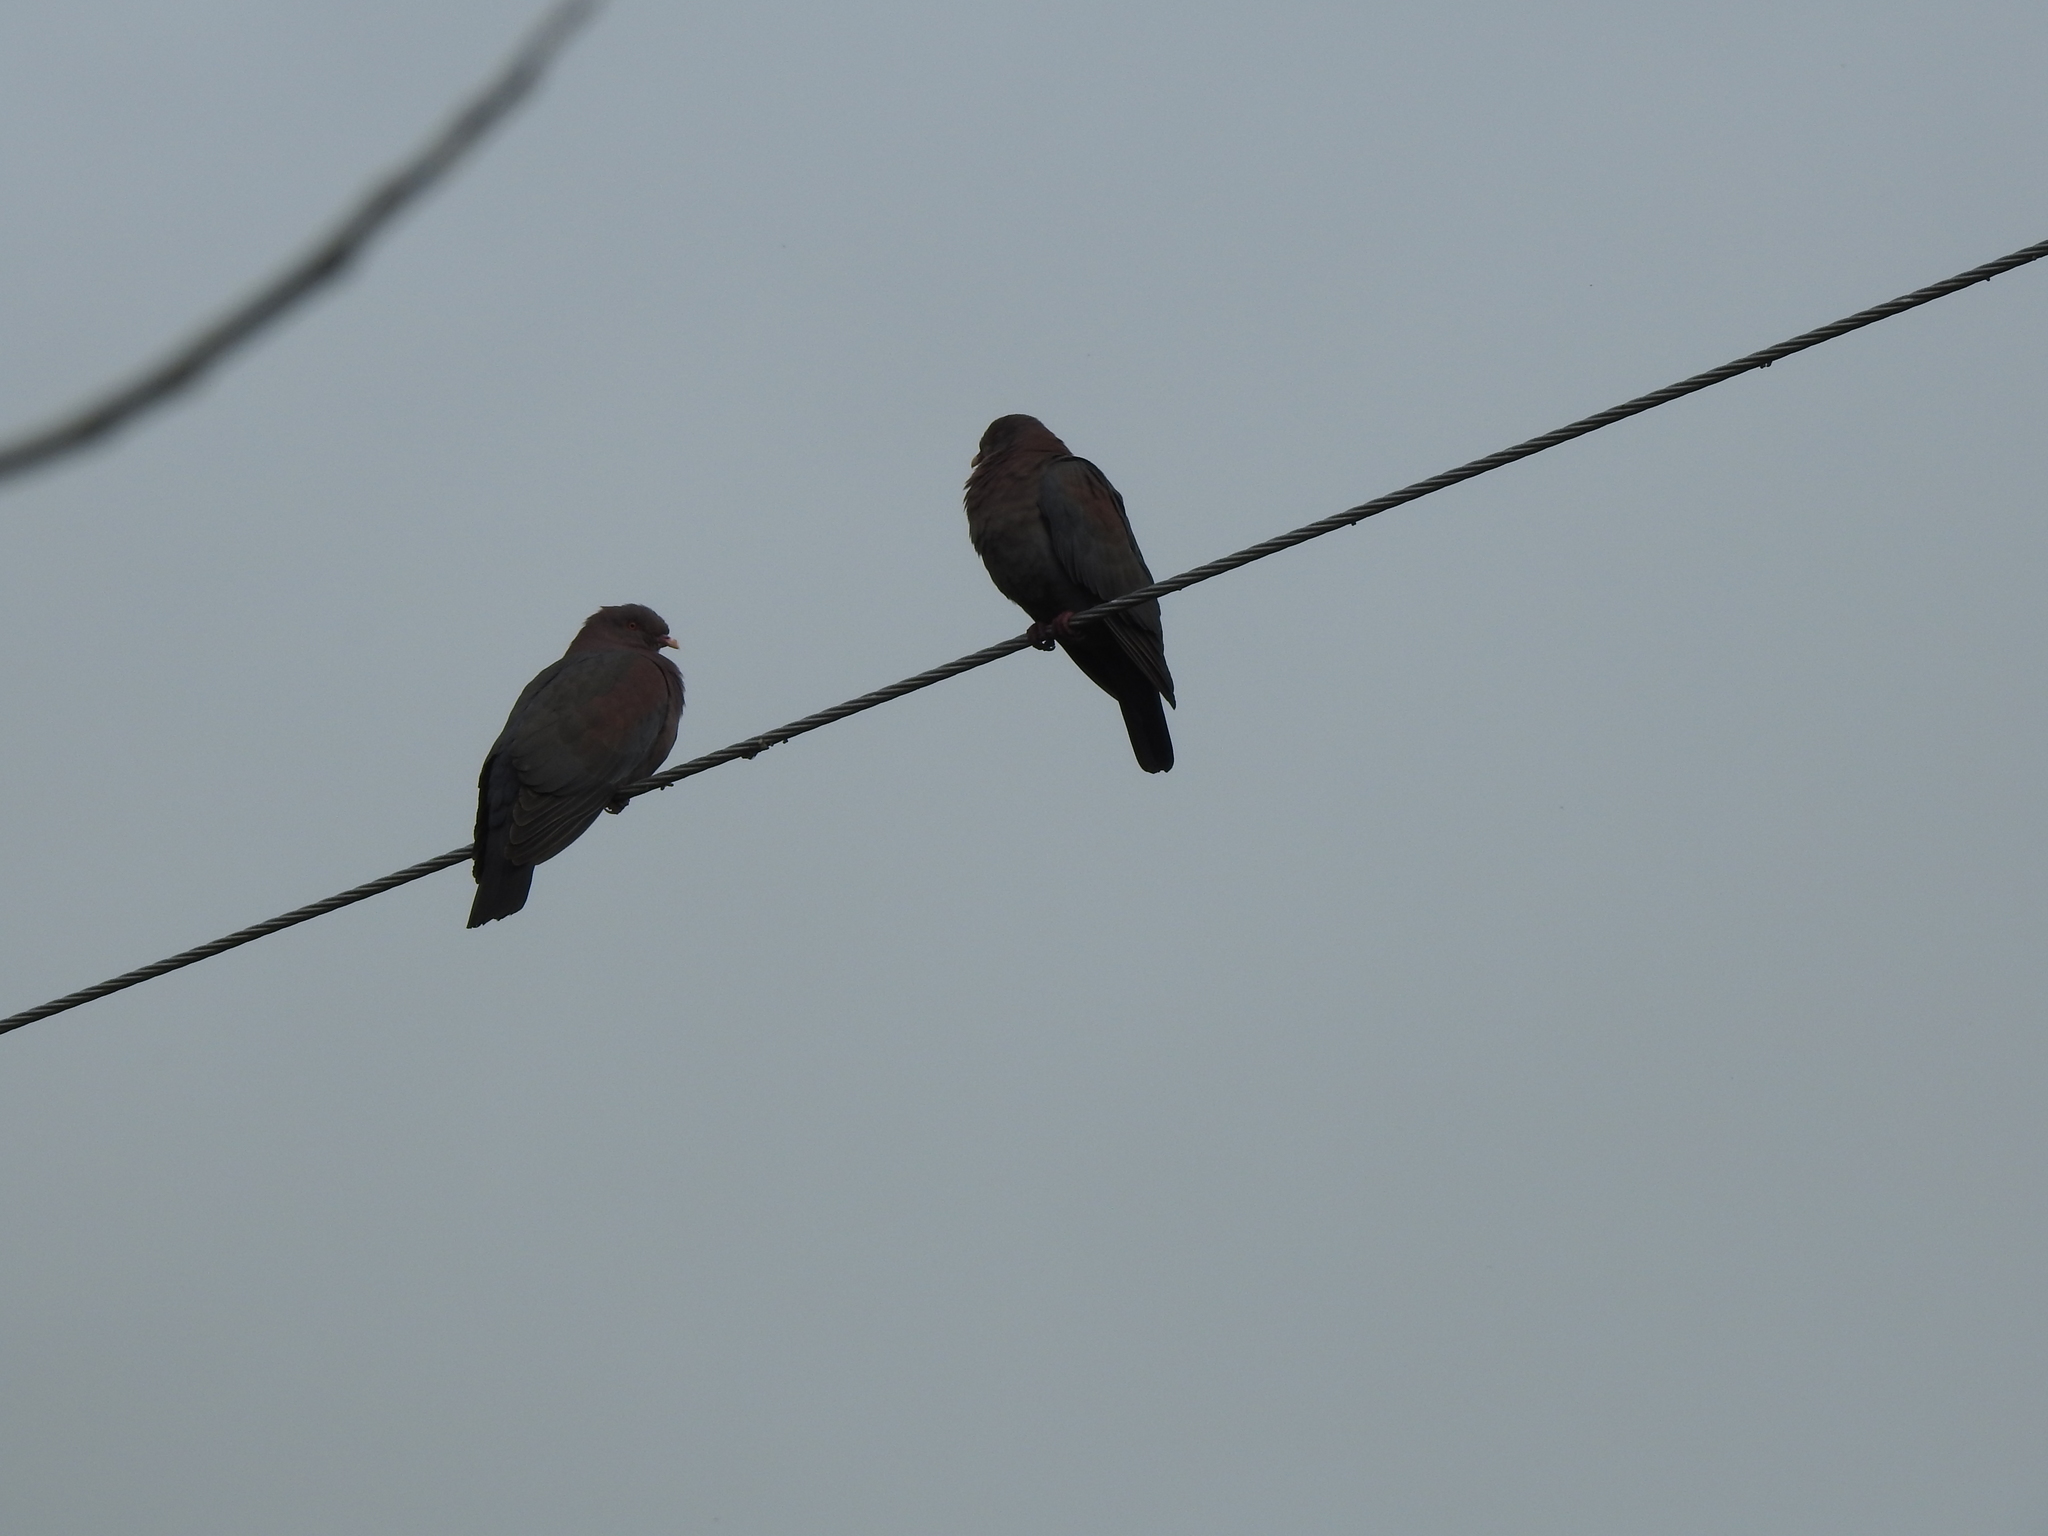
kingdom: Animalia
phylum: Chordata
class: Aves
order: Columbiformes
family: Columbidae
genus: Patagioenas
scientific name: Patagioenas flavirostris
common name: Red-billed pigeon
